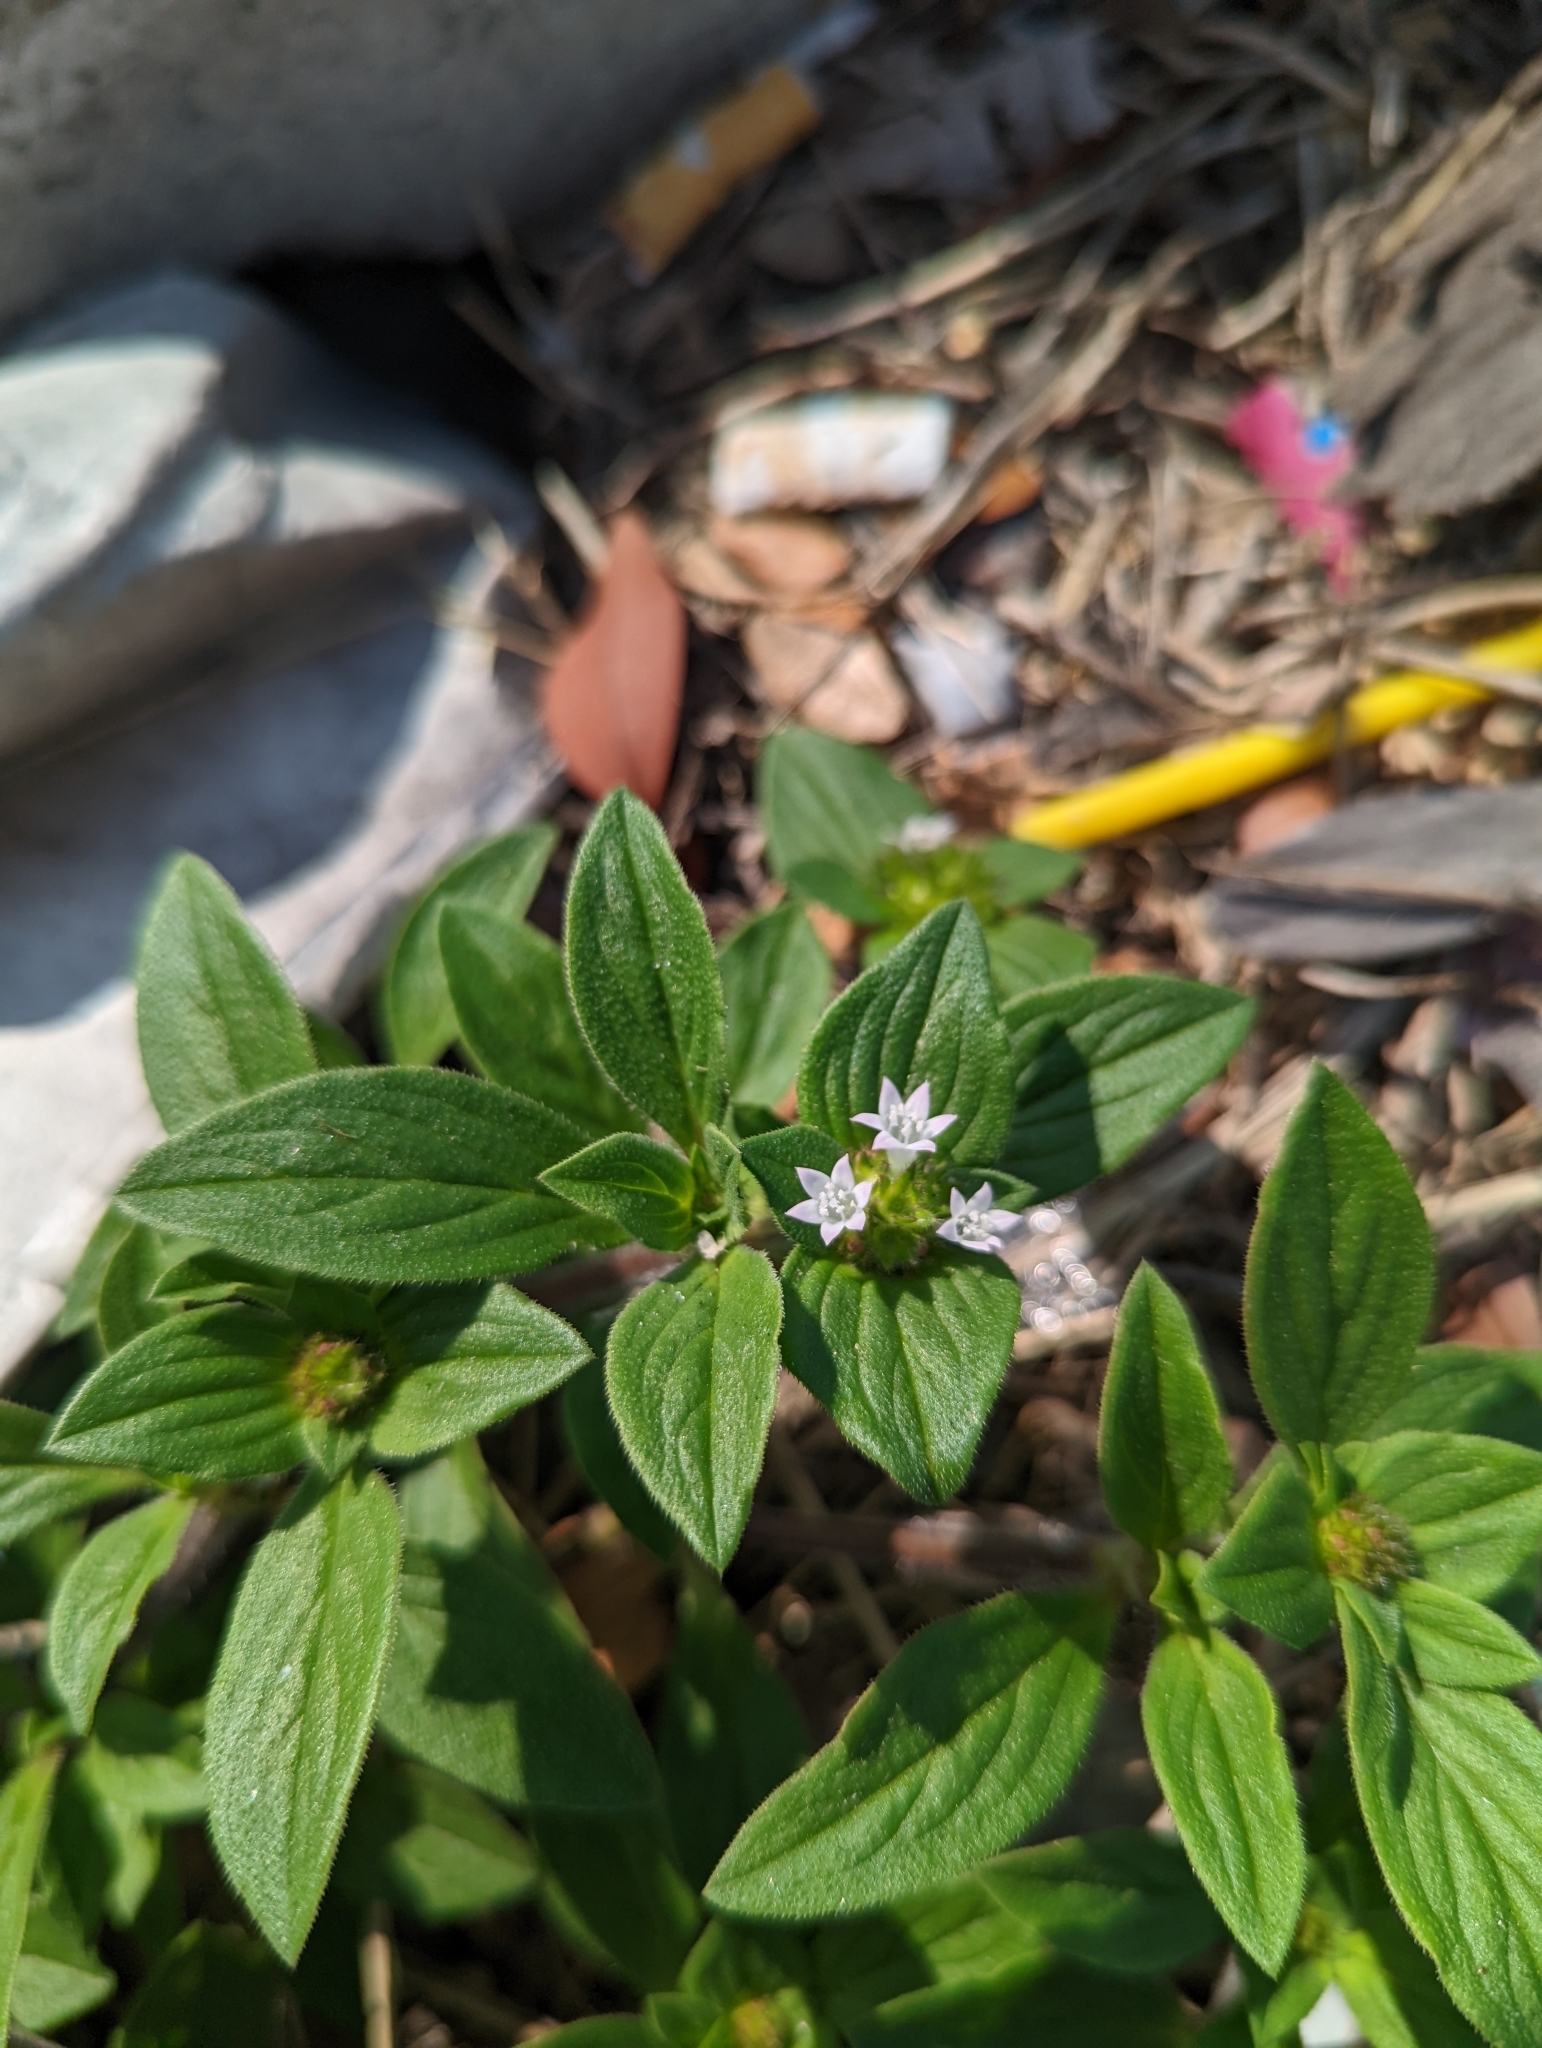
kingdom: Plantae
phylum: Tracheophyta
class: Magnoliopsida
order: Gentianales
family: Rubiaceae
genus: Richardia
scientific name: Richardia scabra
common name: Rough mexican clover
